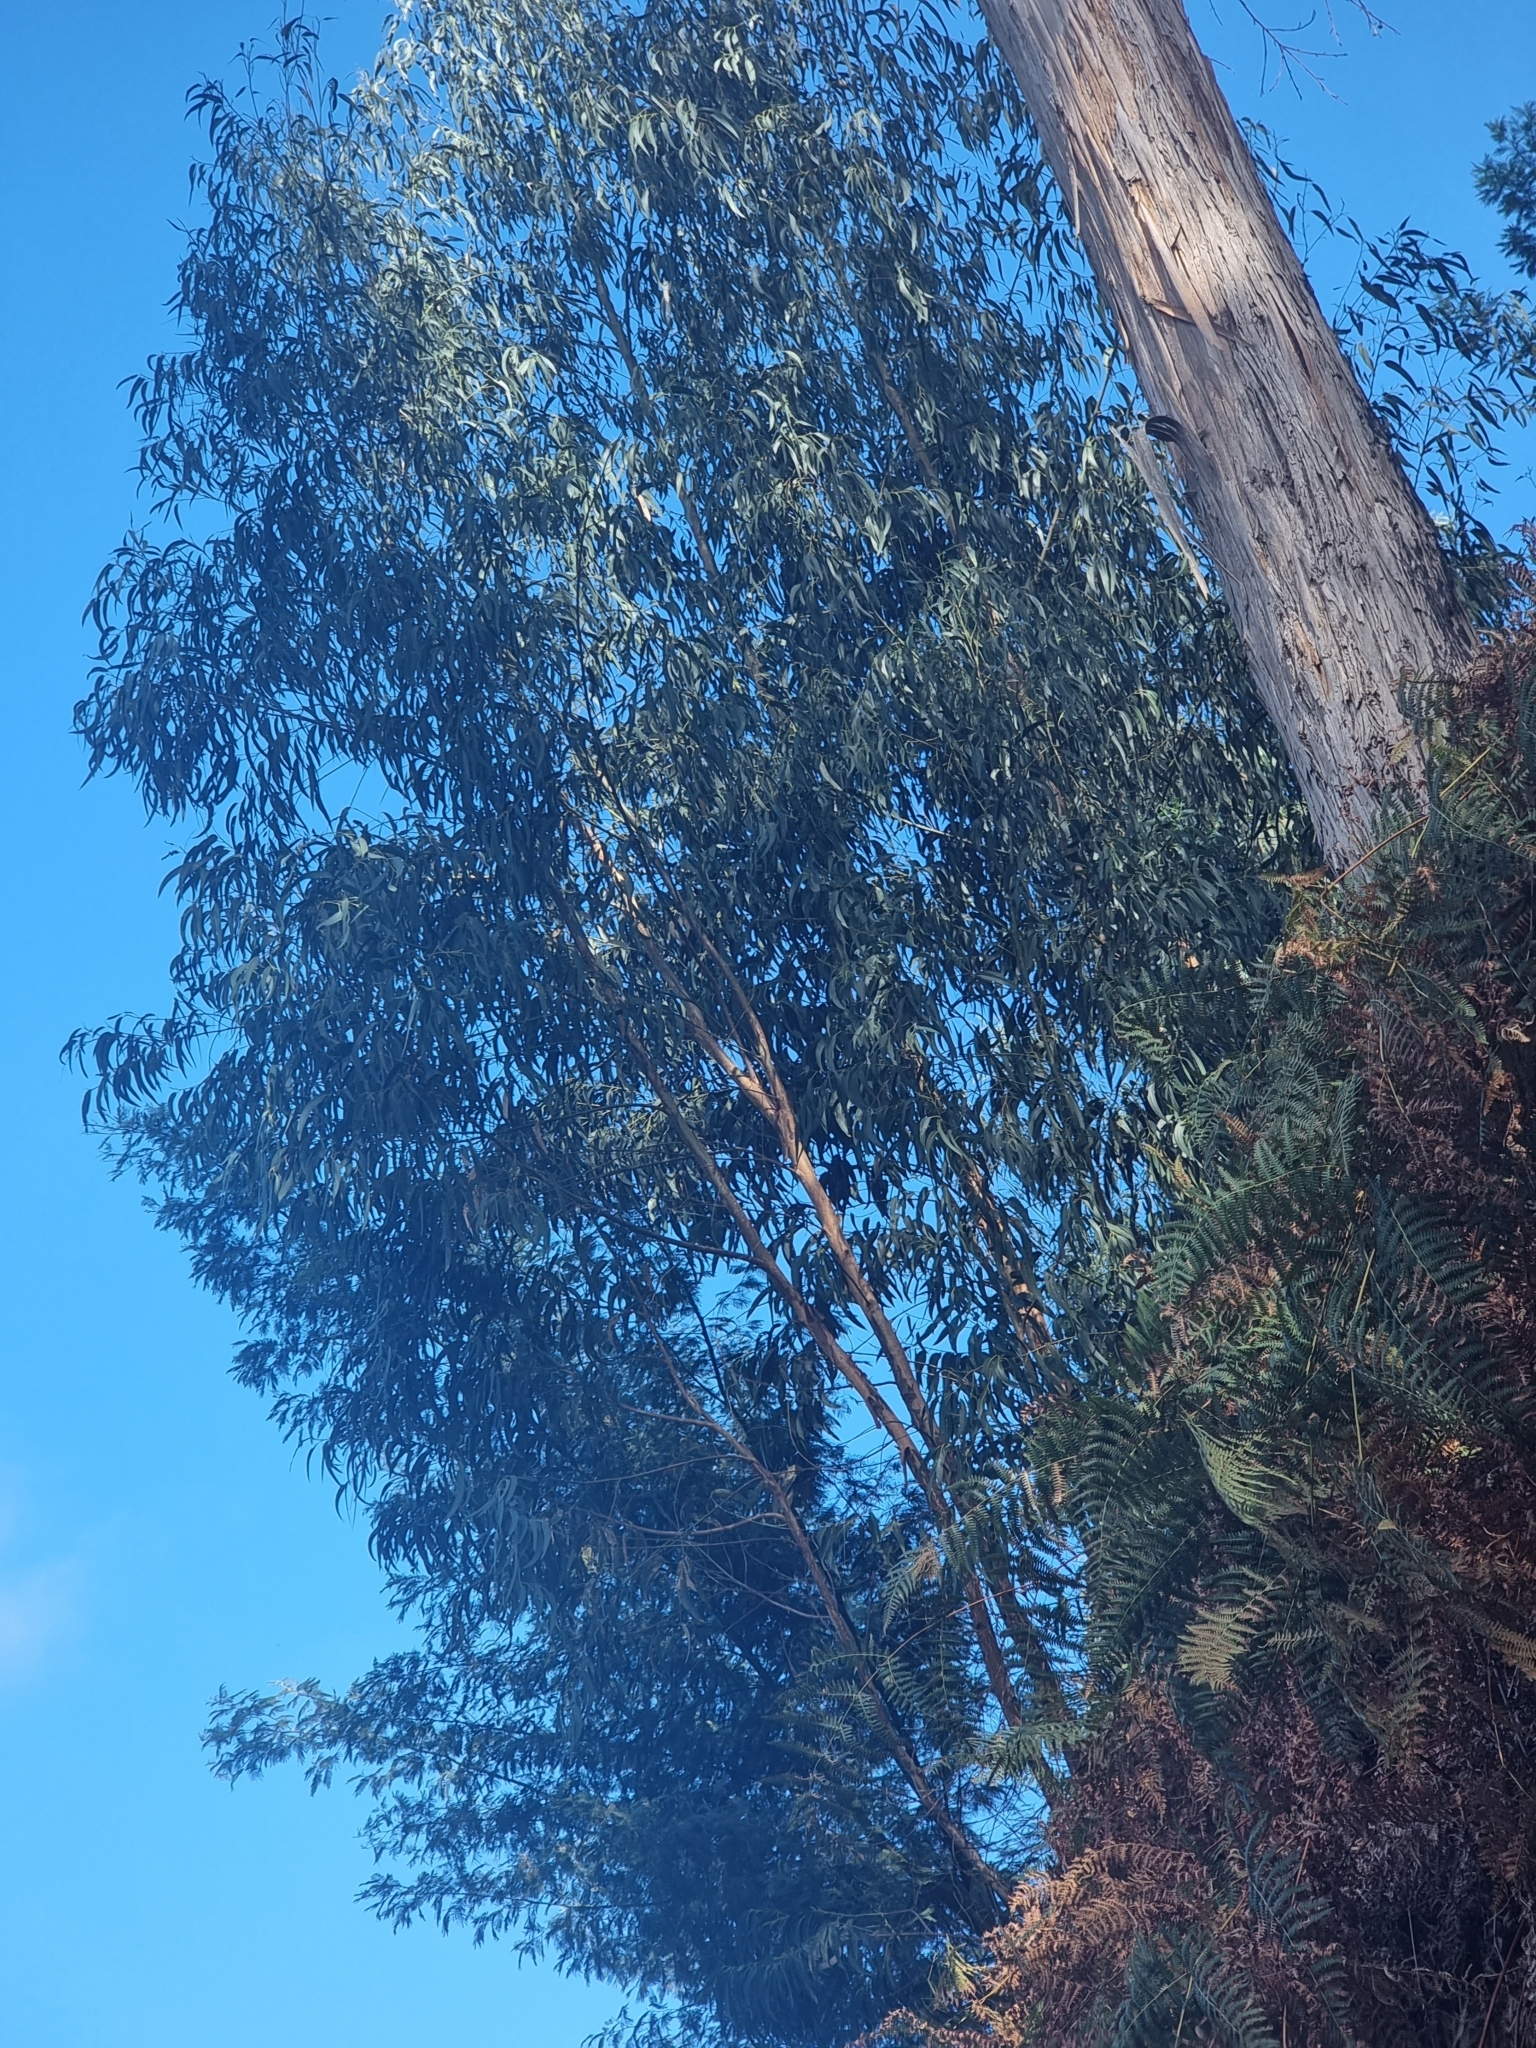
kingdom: Plantae
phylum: Tracheophyta
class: Magnoliopsida
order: Myrtales
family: Myrtaceae
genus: Eucalyptus
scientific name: Eucalyptus globulus
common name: Southern blue-gum
